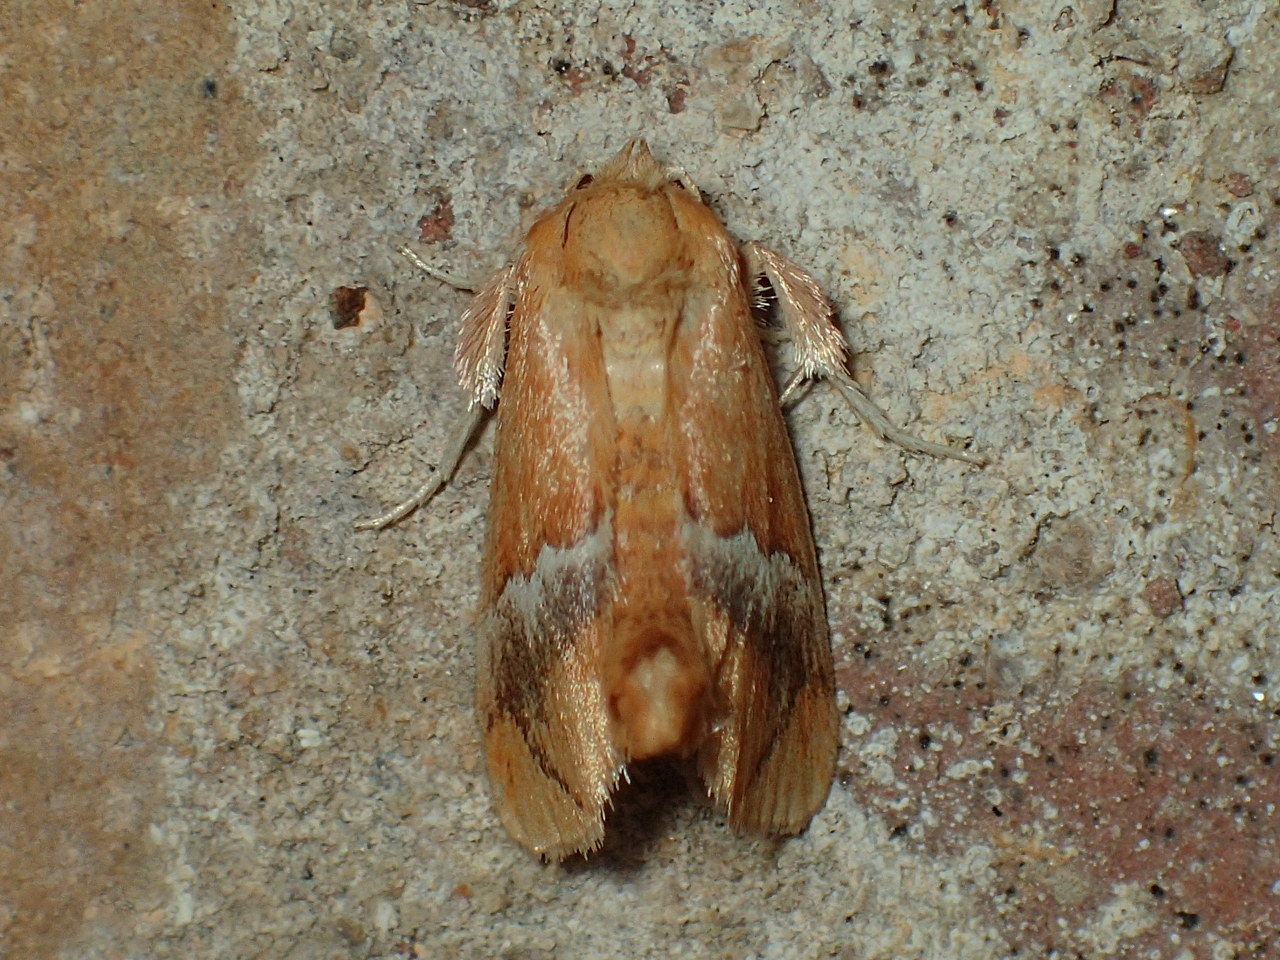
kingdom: Animalia
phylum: Arthropoda
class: Insecta
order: Lepidoptera
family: Limacodidae
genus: Lithacodes
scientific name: Lithacodes fasciola
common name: Yellow-shouldered slug moth
